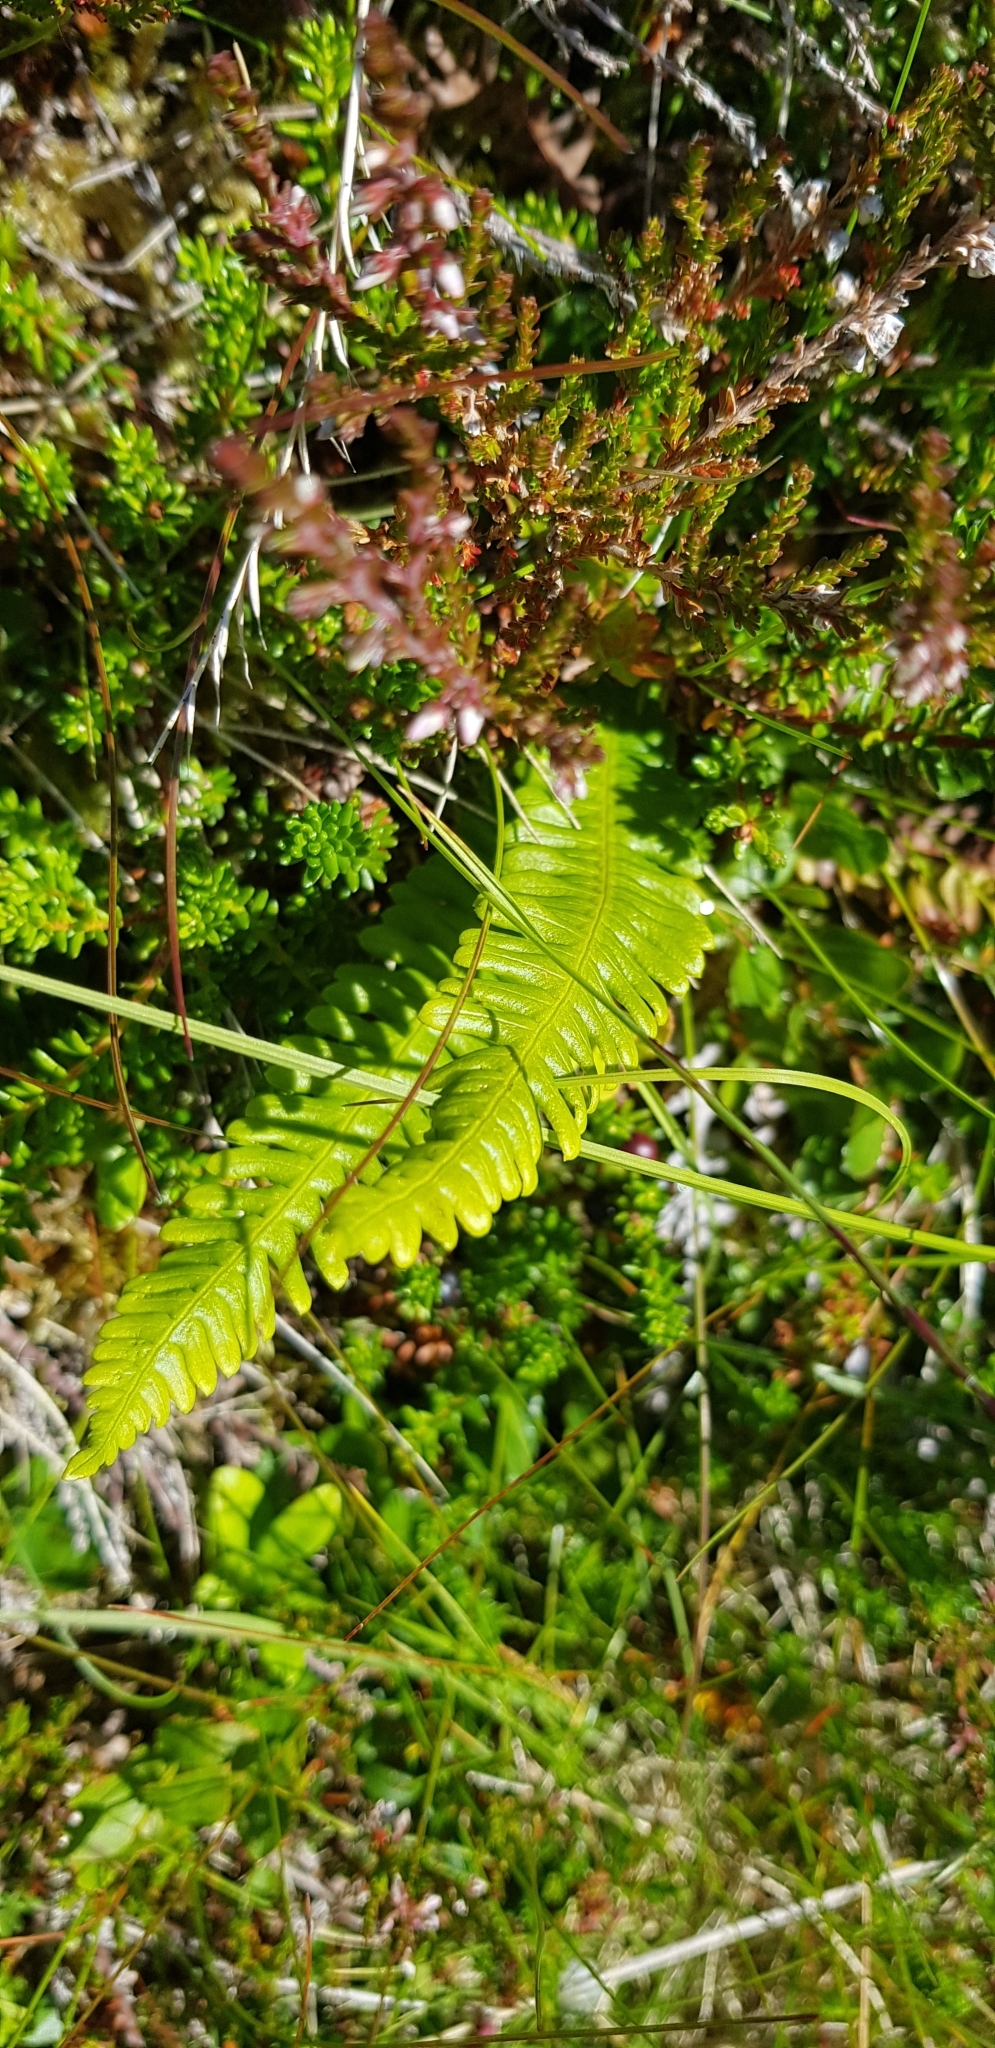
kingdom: Plantae
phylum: Tracheophyta
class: Polypodiopsida
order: Polypodiales
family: Blechnaceae
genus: Struthiopteris
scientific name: Struthiopteris spicant
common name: Deer fern
